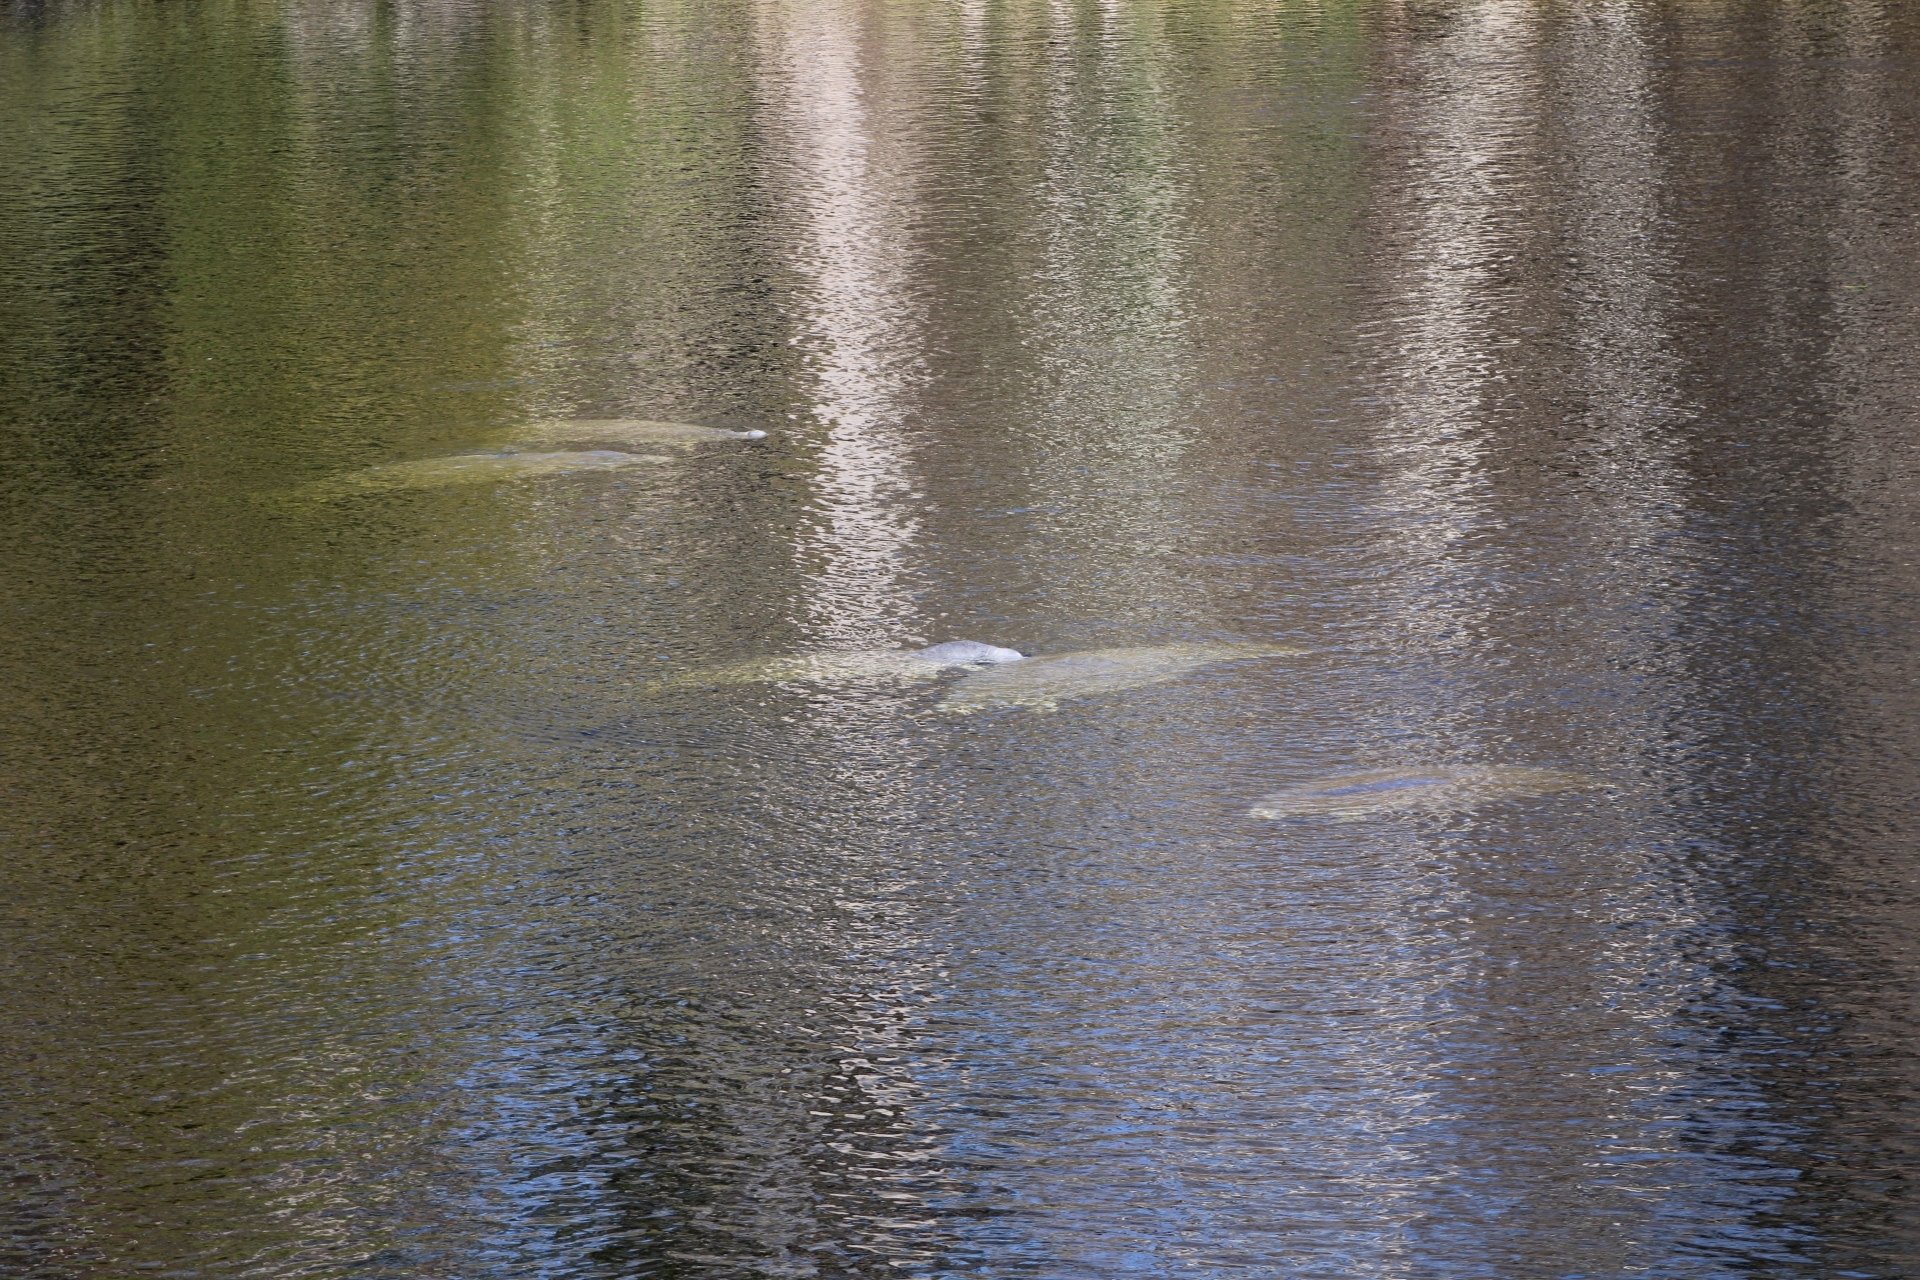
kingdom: Animalia
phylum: Chordata
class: Mammalia
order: Sirenia
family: Trichechidae
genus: Trichechus
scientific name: Trichechus manatus
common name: West indian manatee
